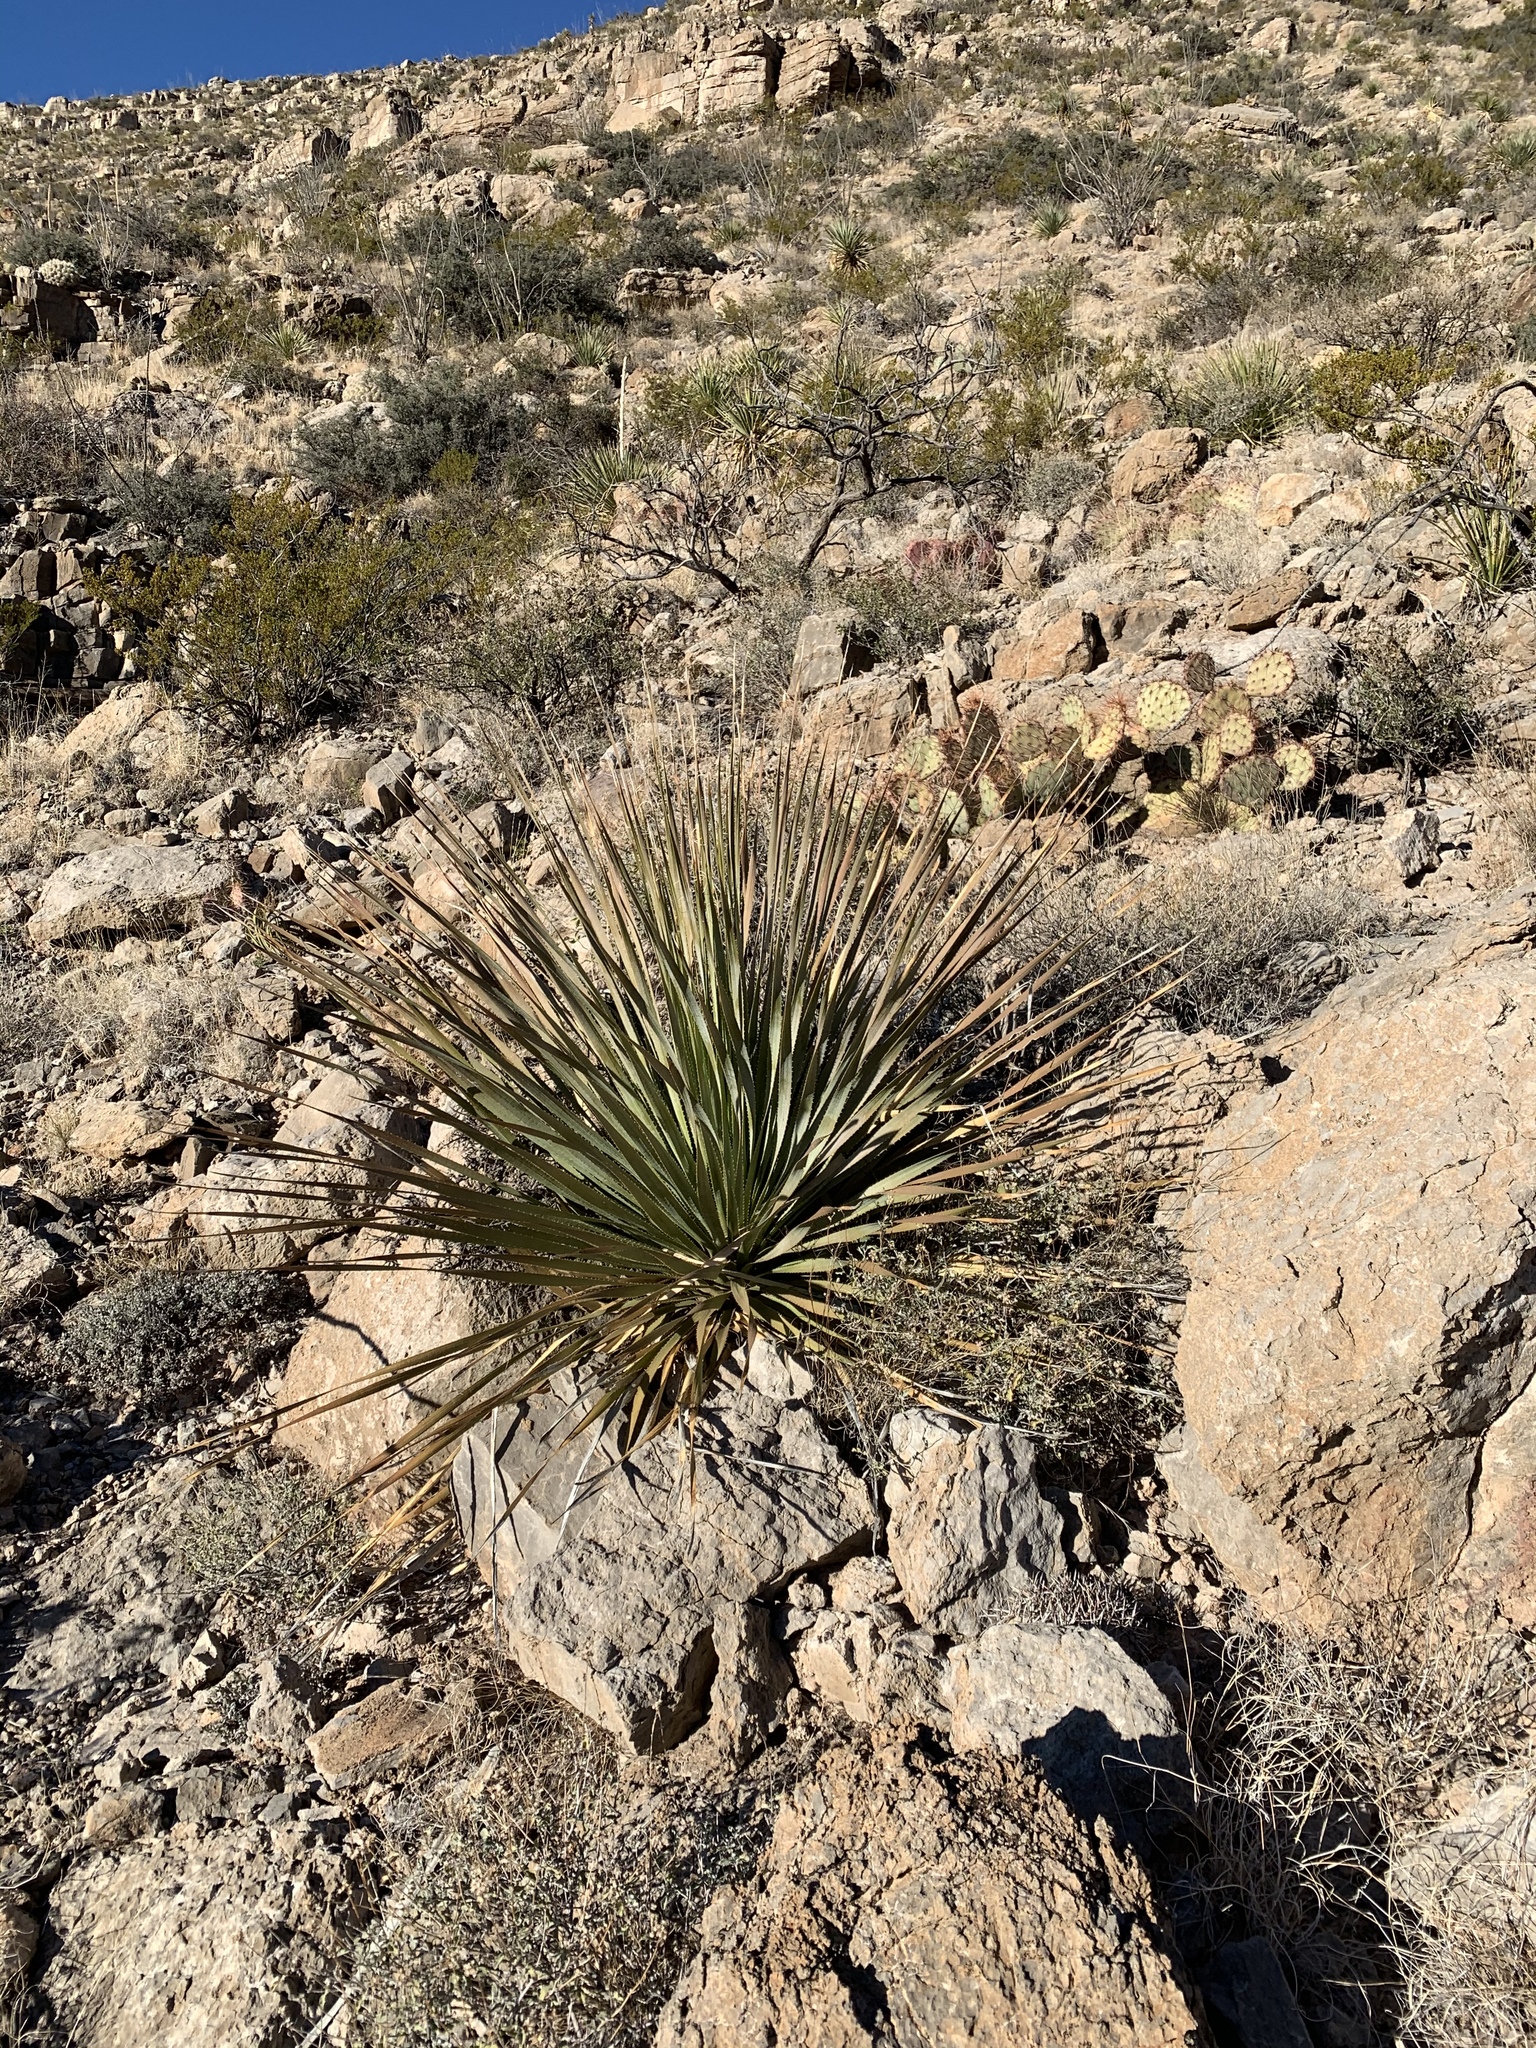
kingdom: Plantae
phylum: Tracheophyta
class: Liliopsida
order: Asparagales
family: Asparagaceae
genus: Dasylirion
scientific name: Dasylirion wheeleri
